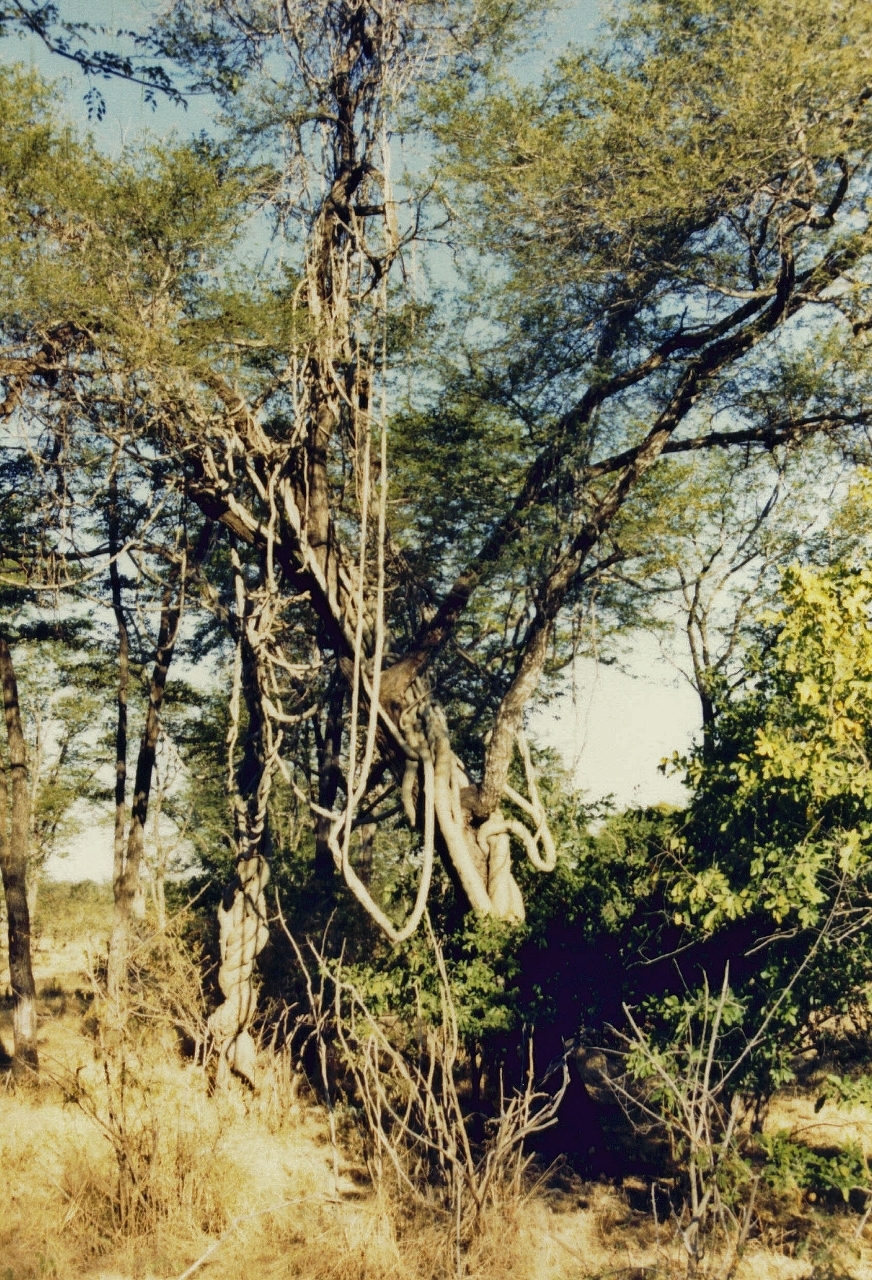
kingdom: Plantae
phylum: Tracheophyta
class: Magnoliopsida
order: Gentianales
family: Apocynaceae
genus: Fockea
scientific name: Fockea multiflora
